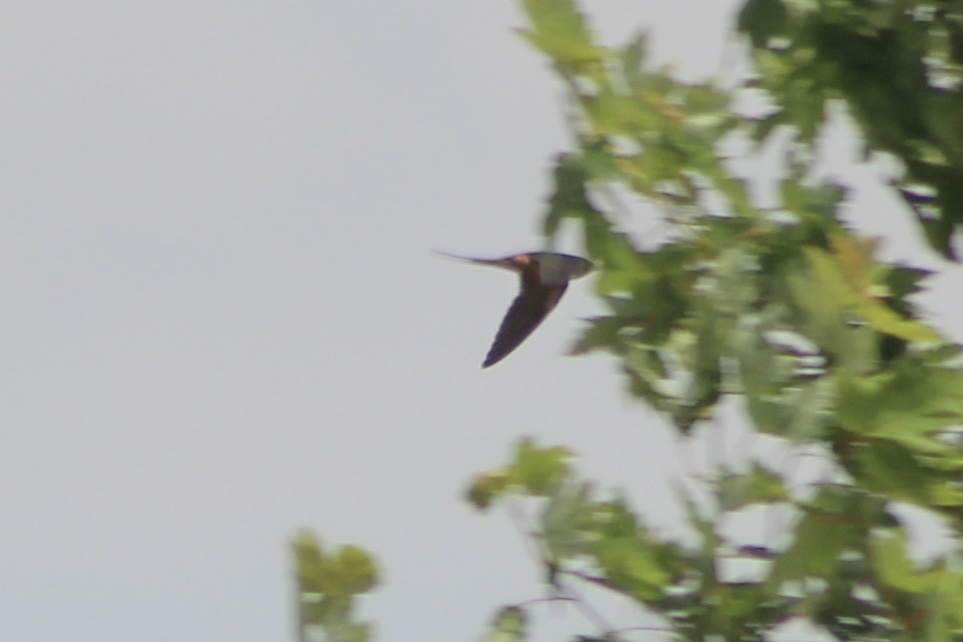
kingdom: Animalia
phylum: Chordata
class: Aves
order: Passeriformes
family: Hirundinidae
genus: Hirundo
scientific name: Hirundo rustica
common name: Barn swallow
